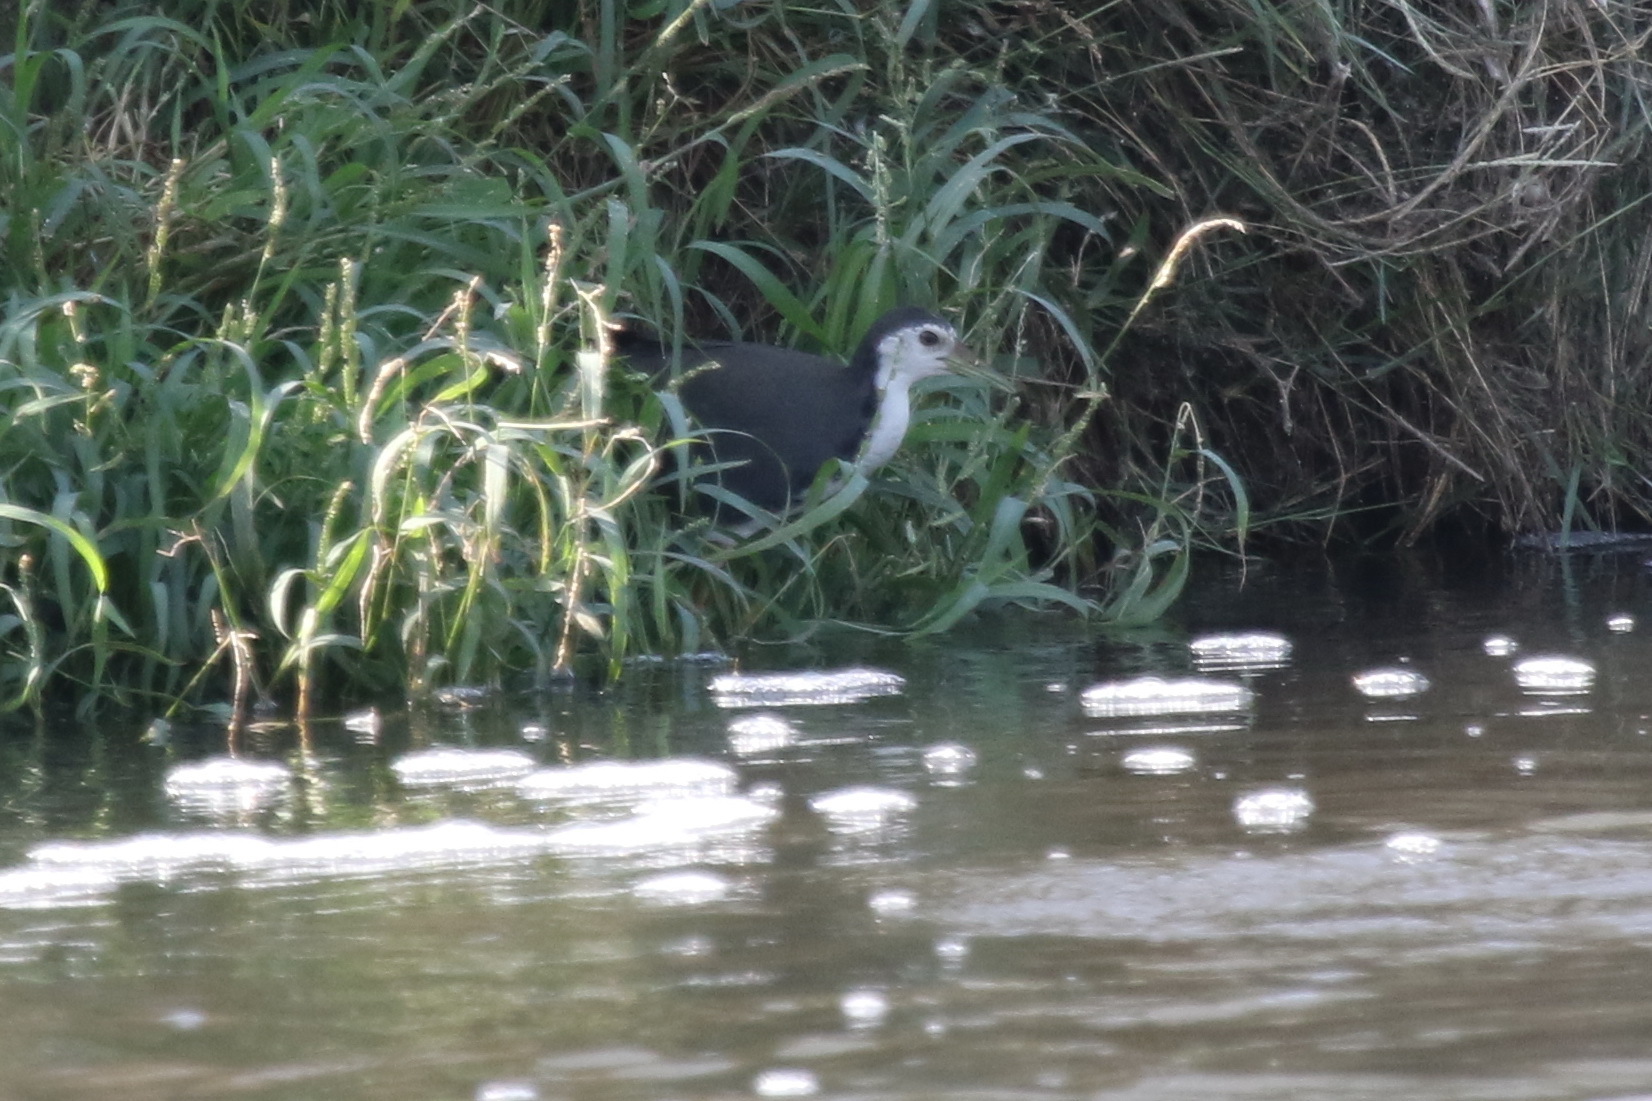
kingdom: Animalia
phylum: Chordata
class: Aves
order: Gruiformes
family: Rallidae
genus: Amaurornis
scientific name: Amaurornis phoenicurus
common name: White-breasted waterhen
